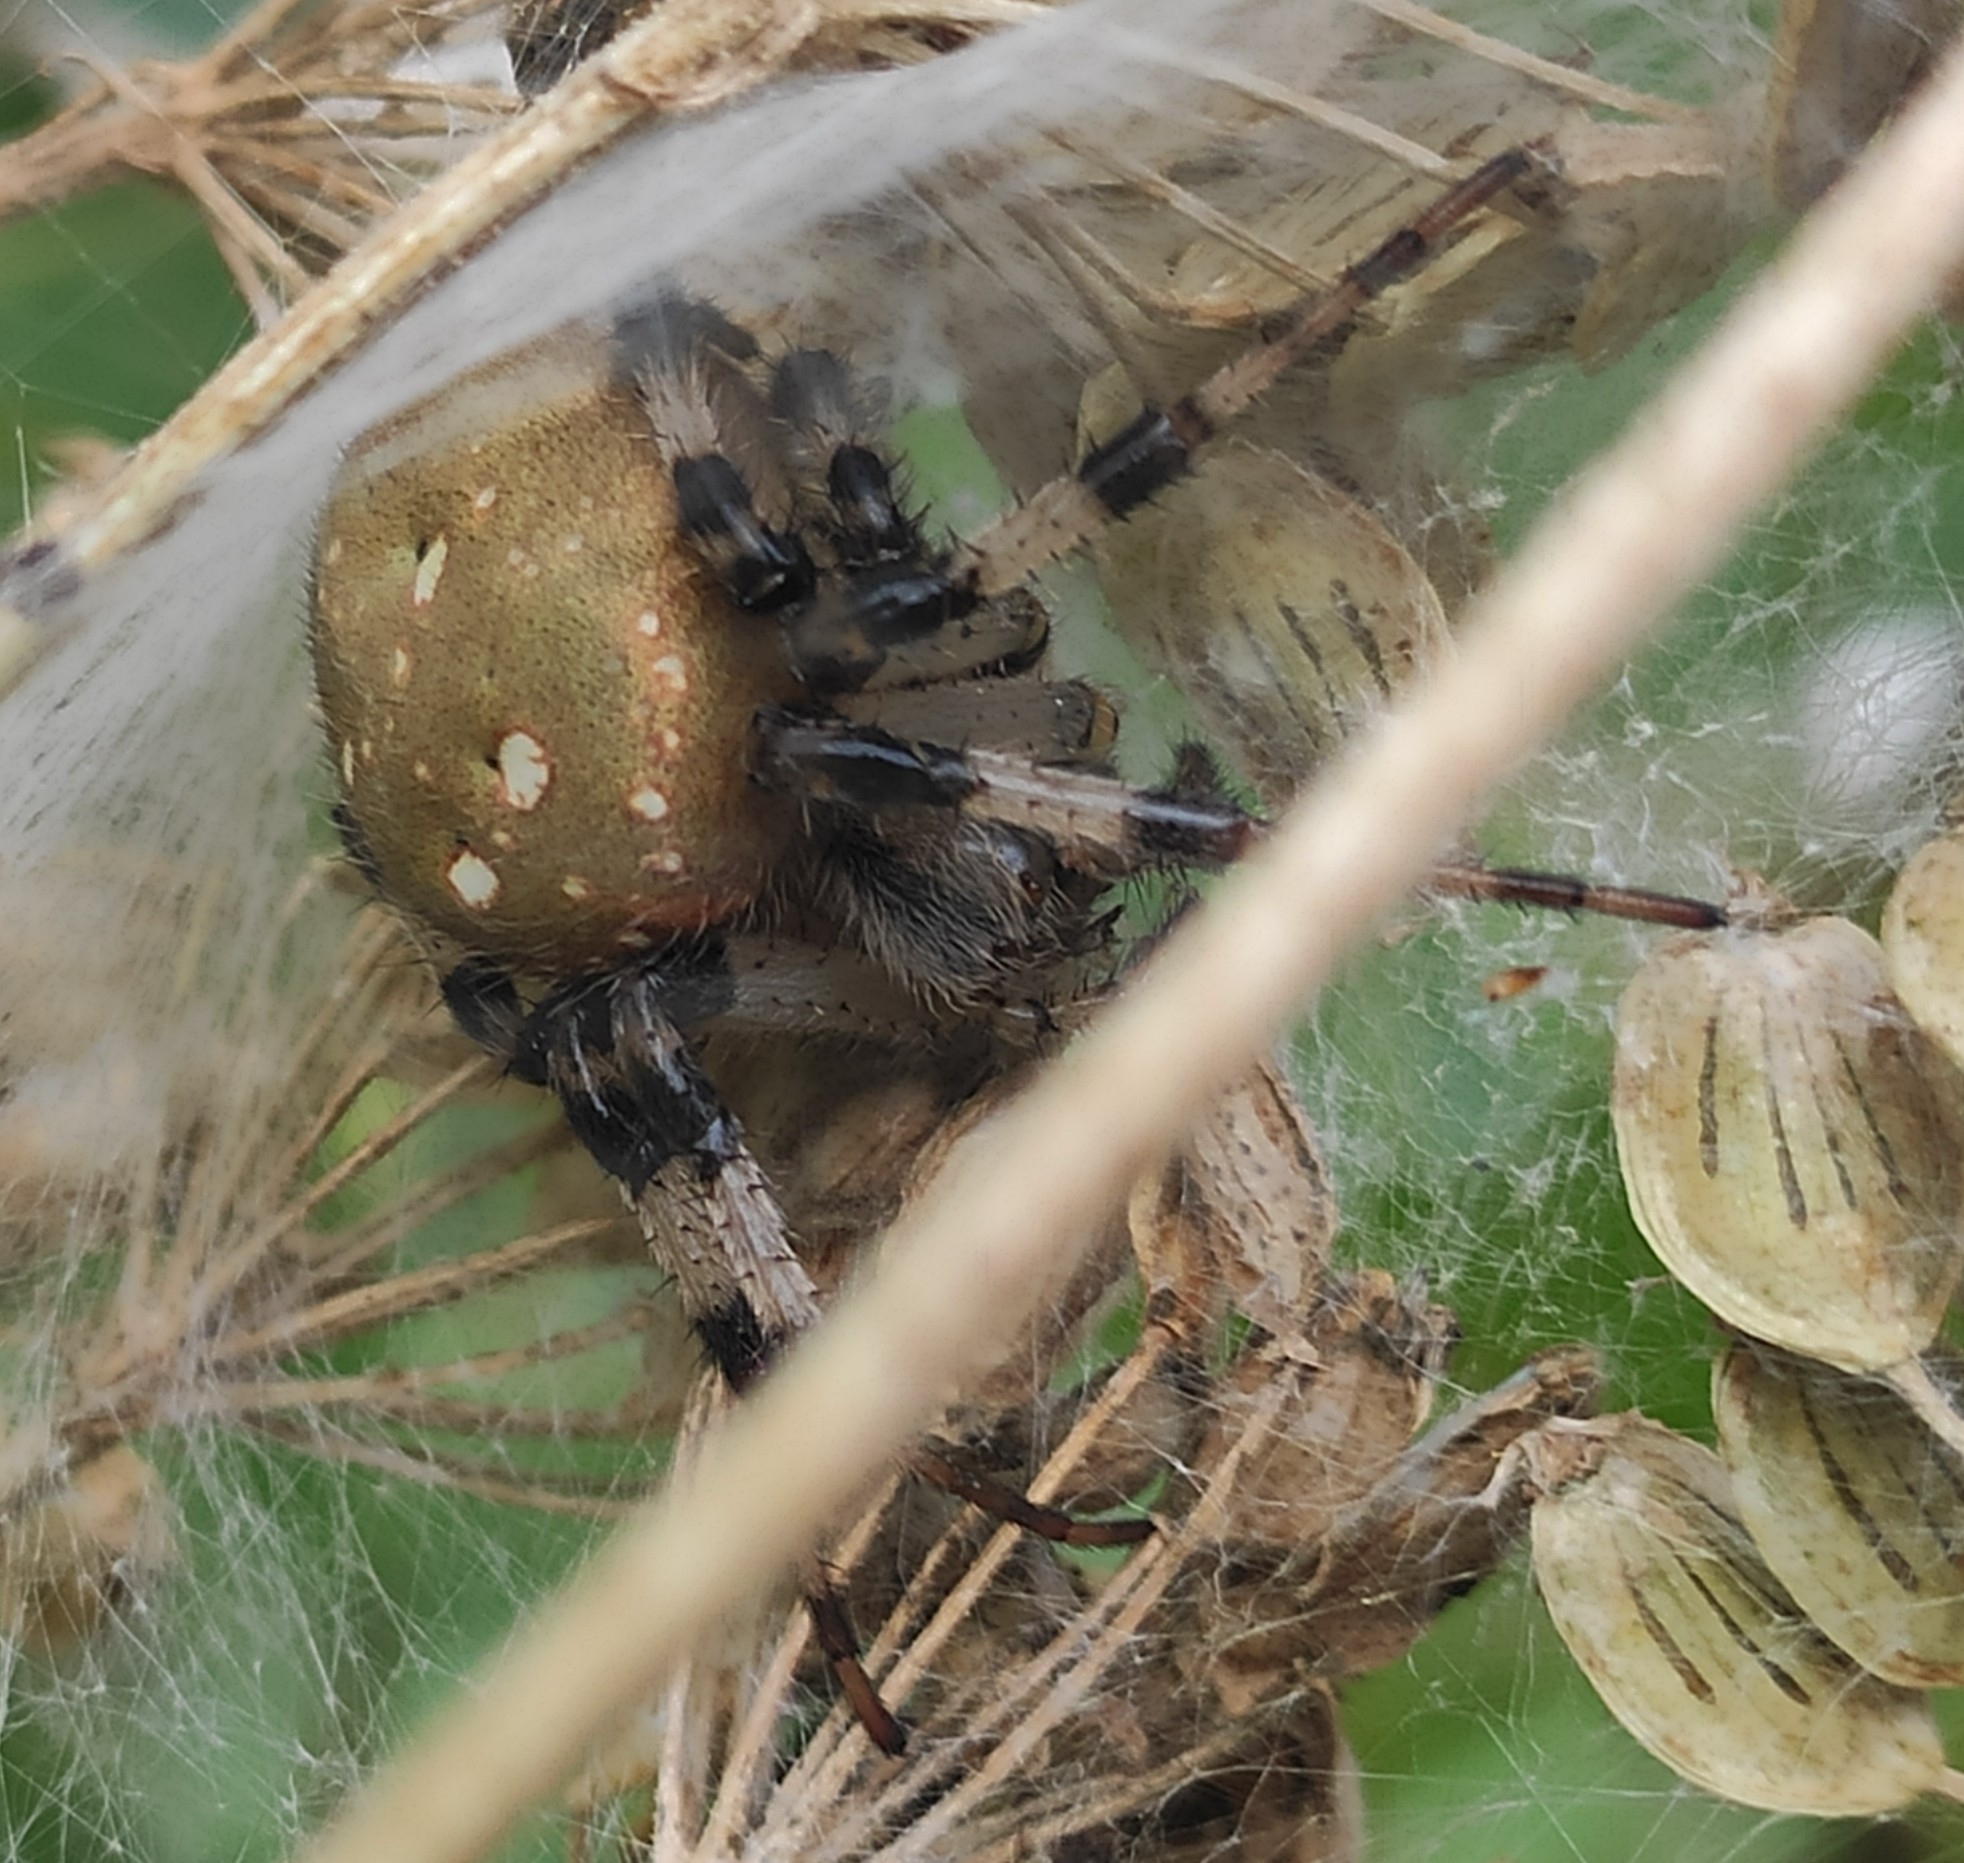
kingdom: Animalia
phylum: Arthropoda
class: Arachnida
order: Araneae
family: Araneidae
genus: Araneus
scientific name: Araneus quadratus
